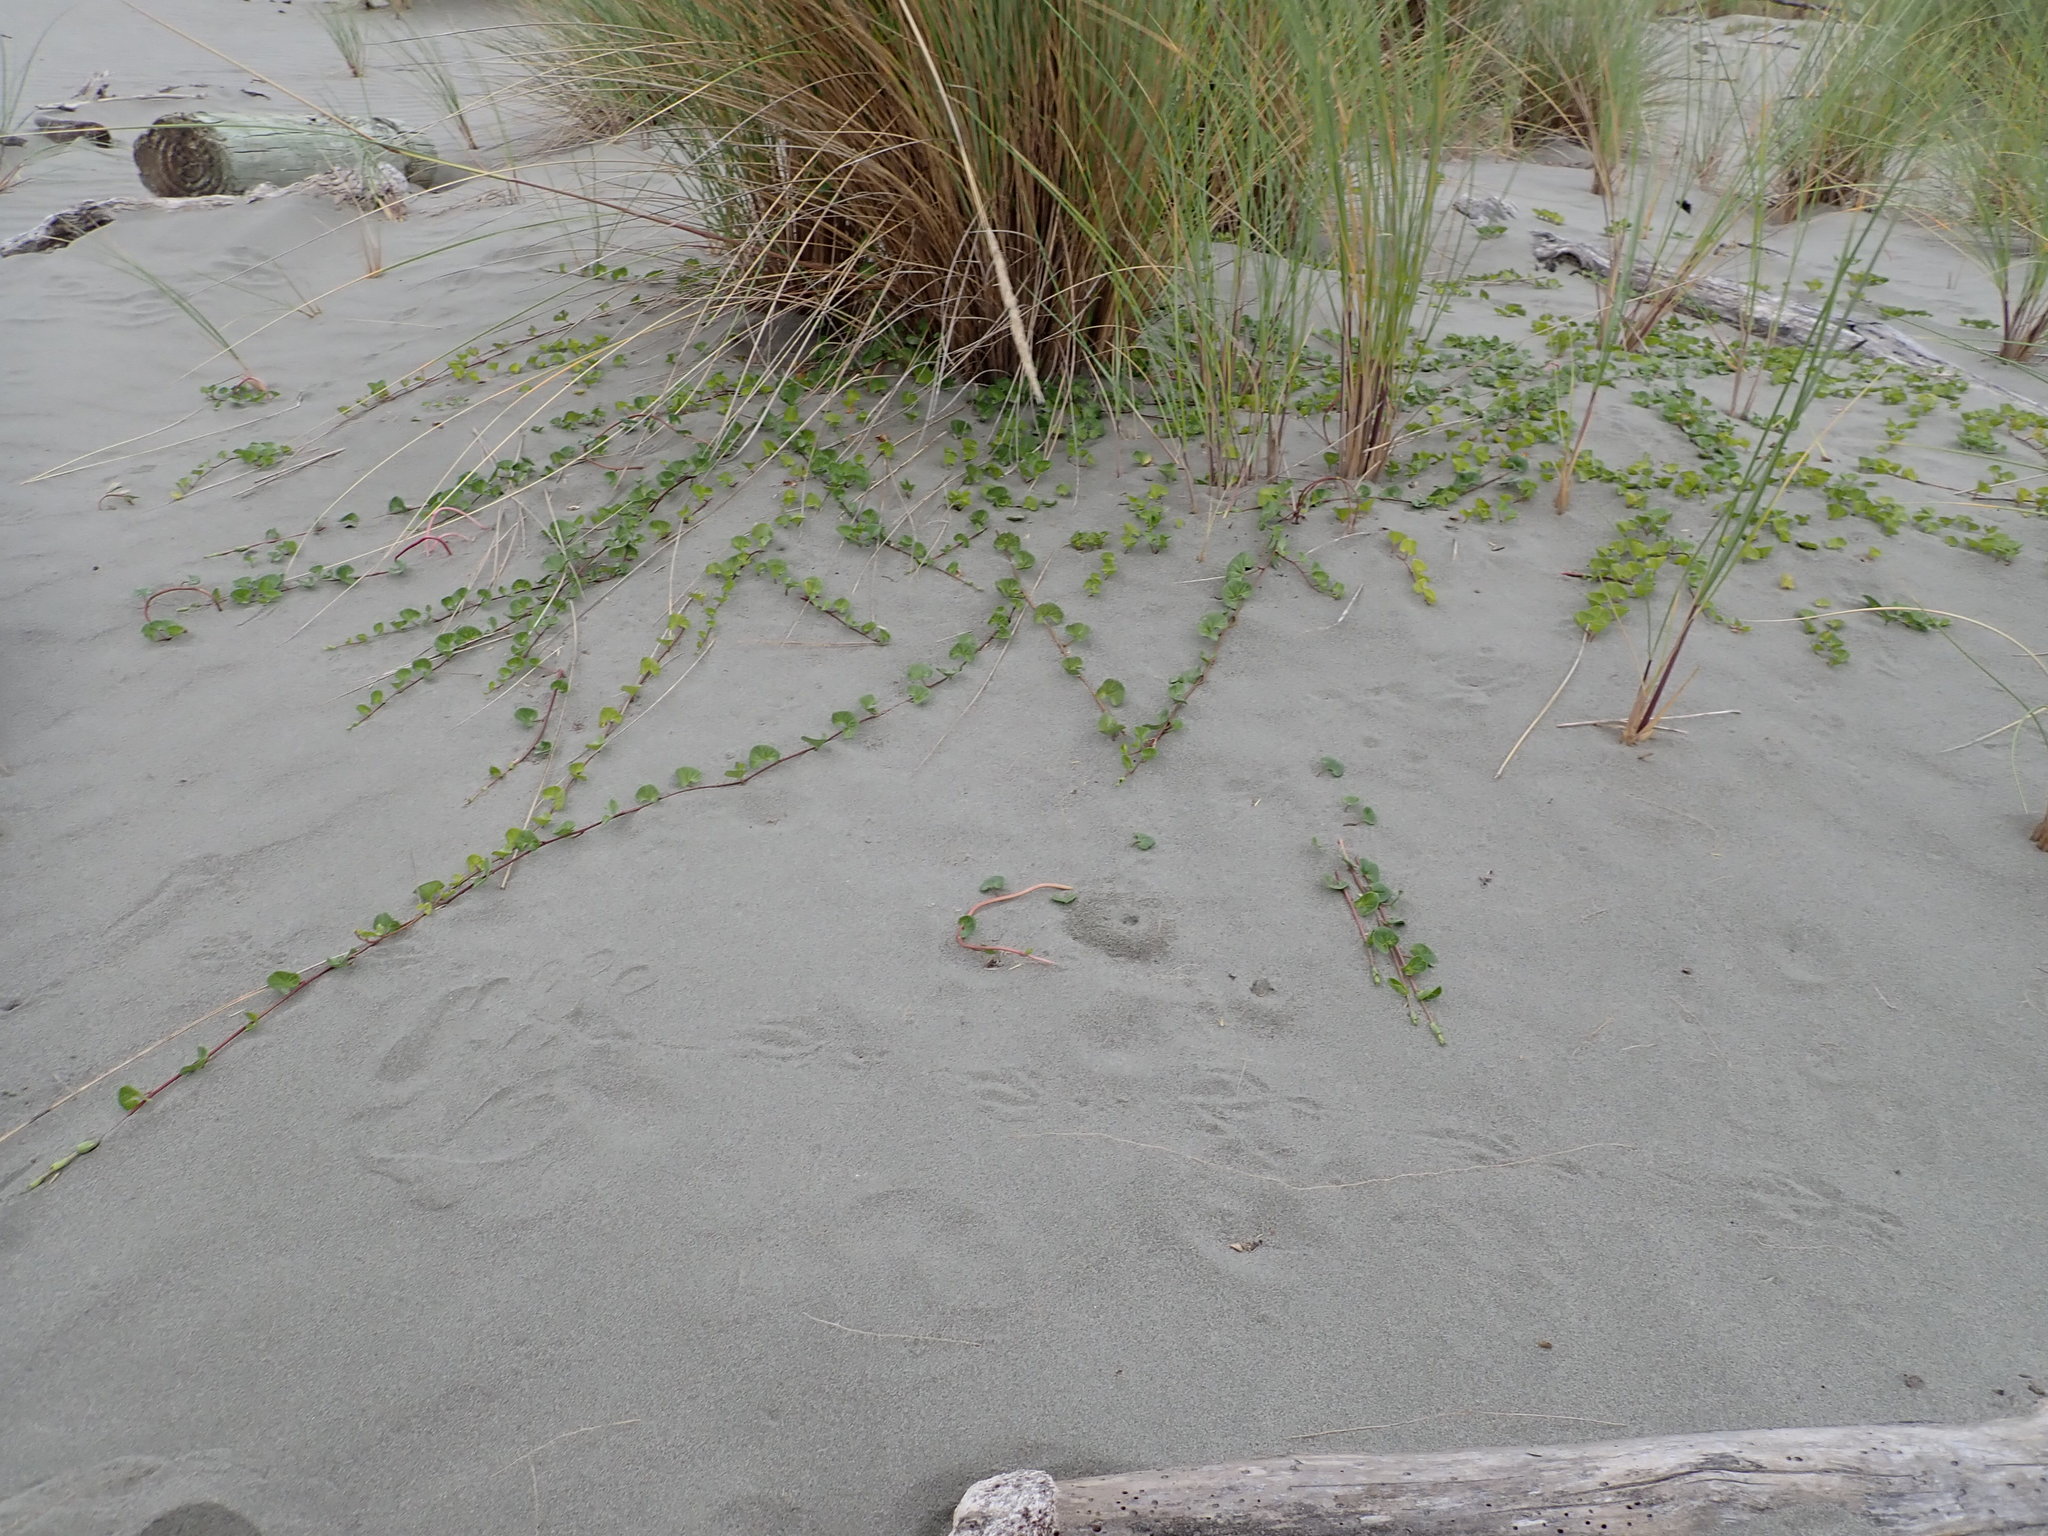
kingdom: Plantae
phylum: Tracheophyta
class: Magnoliopsida
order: Solanales
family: Convolvulaceae
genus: Calystegia
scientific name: Calystegia soldanella
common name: Sea bindweed
